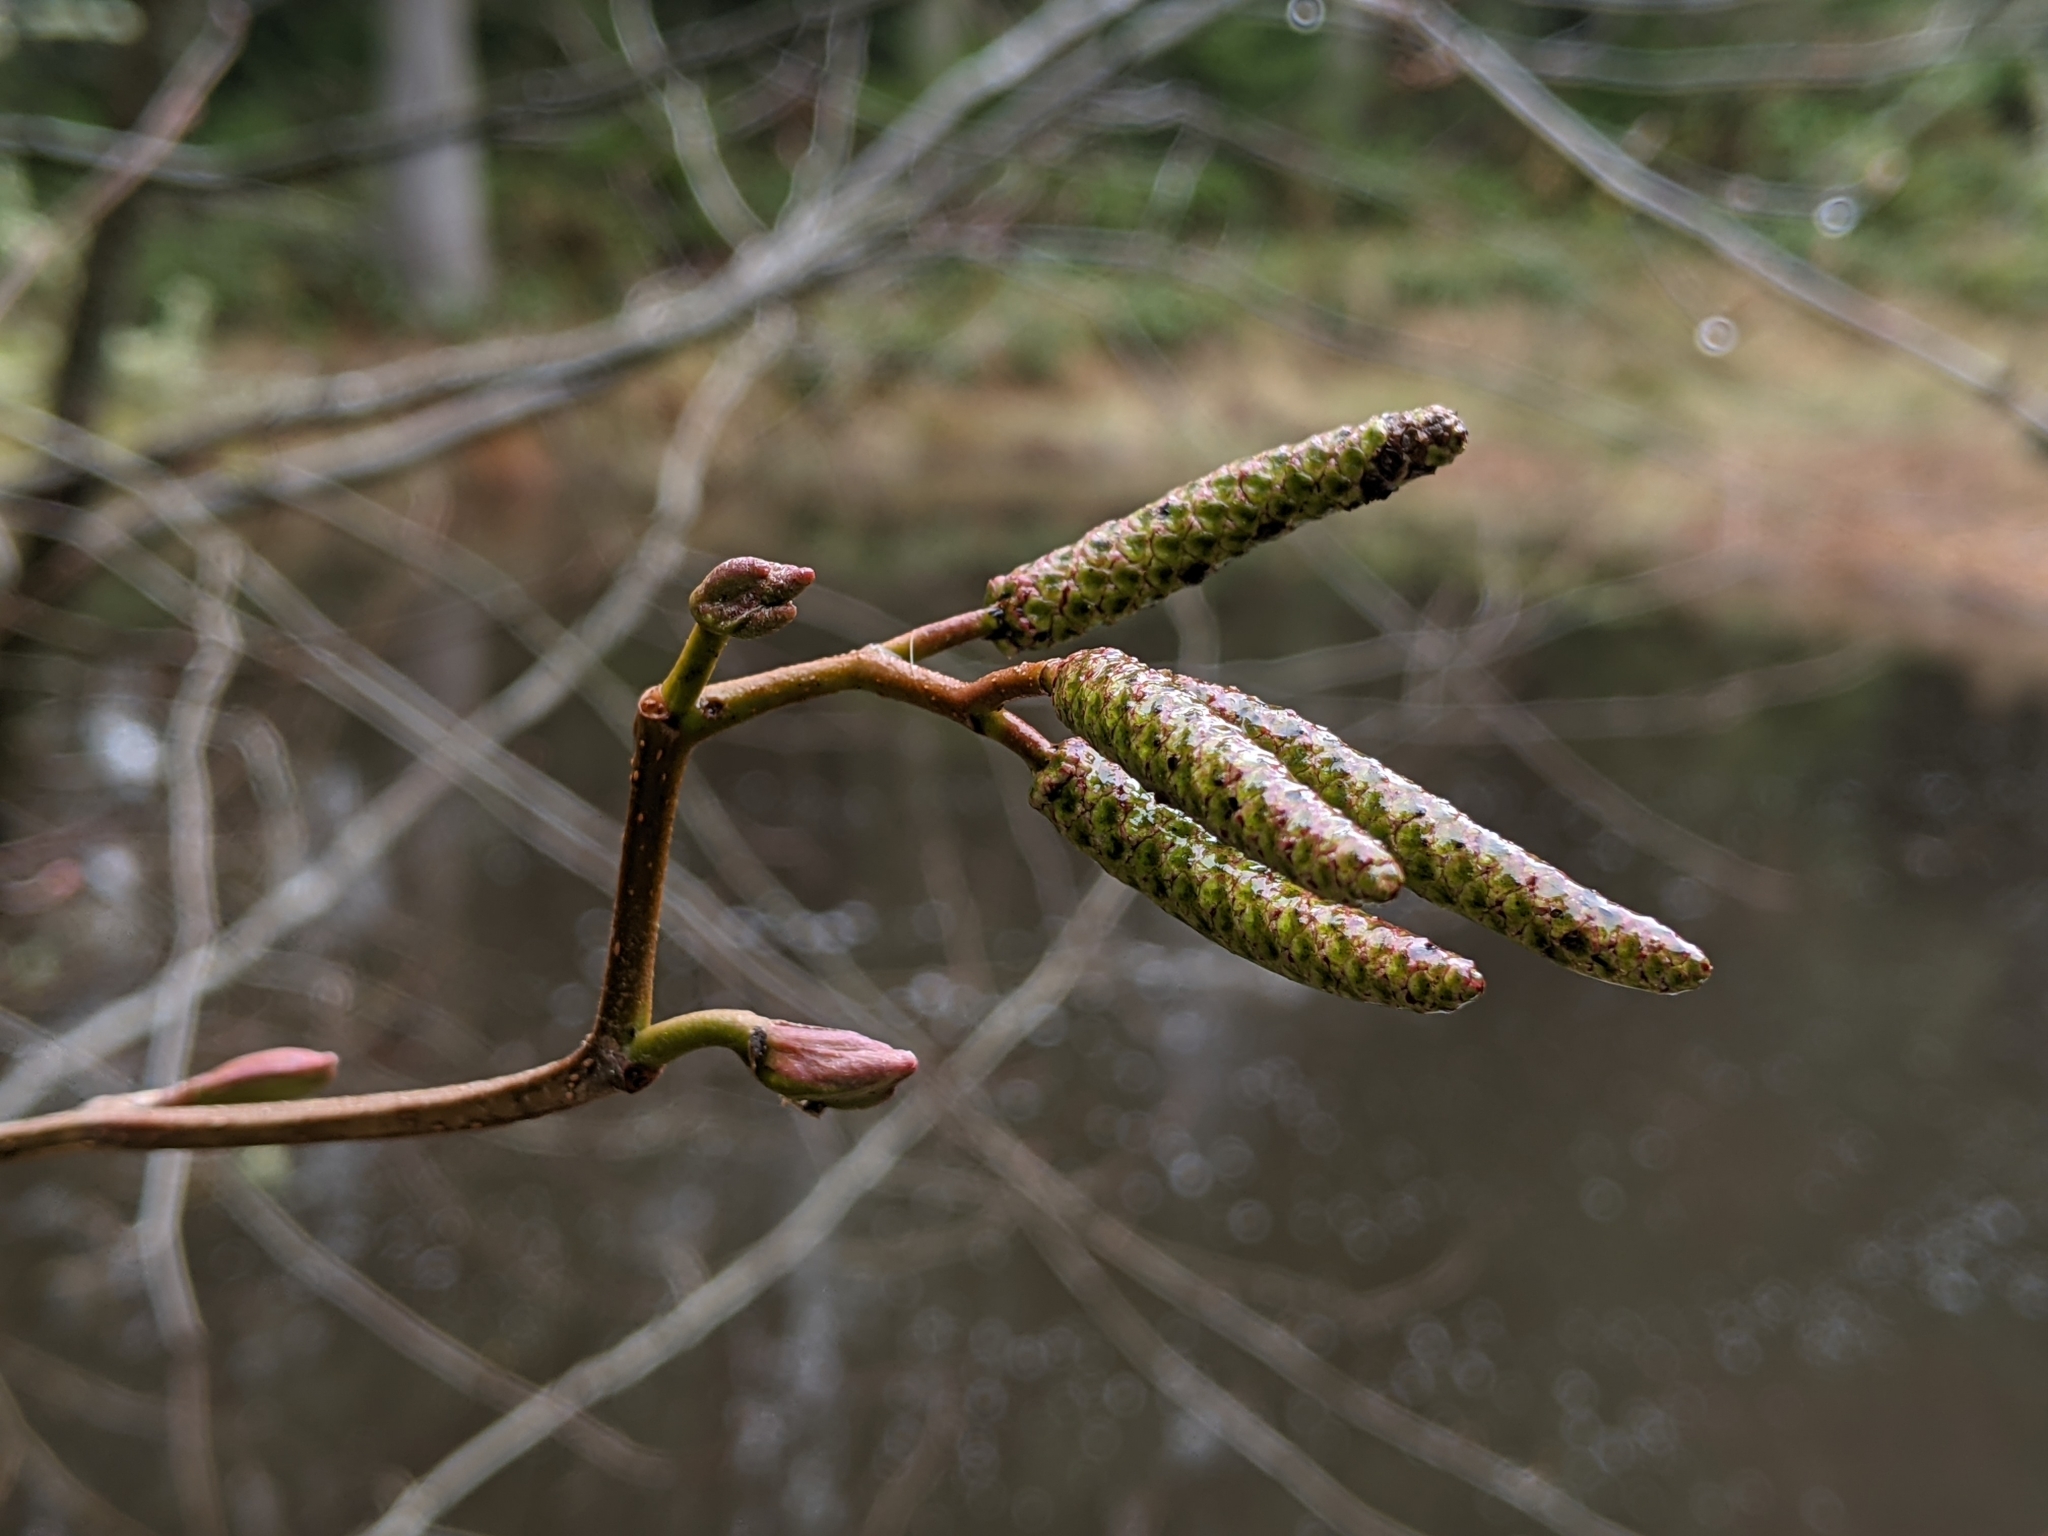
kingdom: Plantae
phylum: Tracheophyta
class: Magnoliopsida
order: Fagales
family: Betulaceae
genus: Alnus
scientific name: Alnus rubra
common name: Red alder
